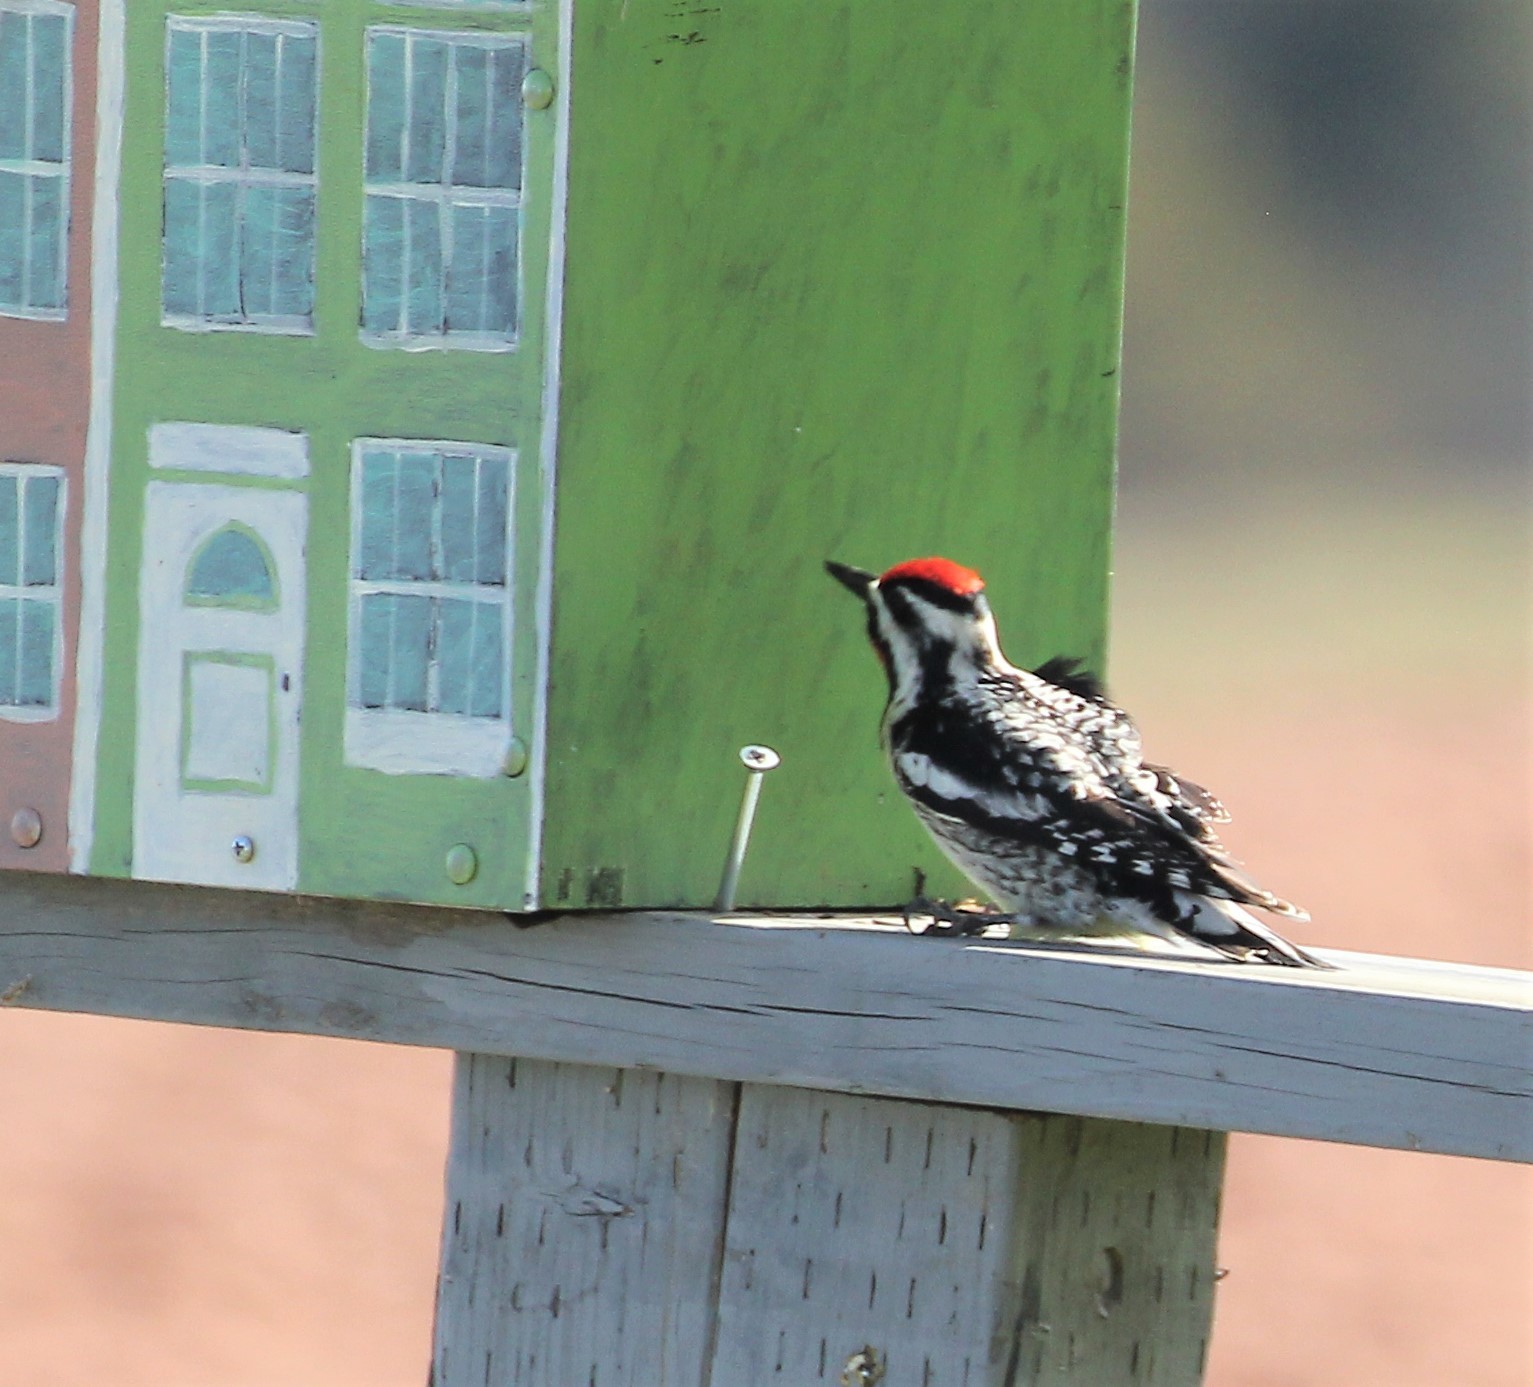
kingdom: Animalia
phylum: Chordata
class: Aves
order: Piciformes
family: Picidae
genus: Sphyrapicus
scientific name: Sphyrapicus varius
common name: Yellow-bellied sapsucker
